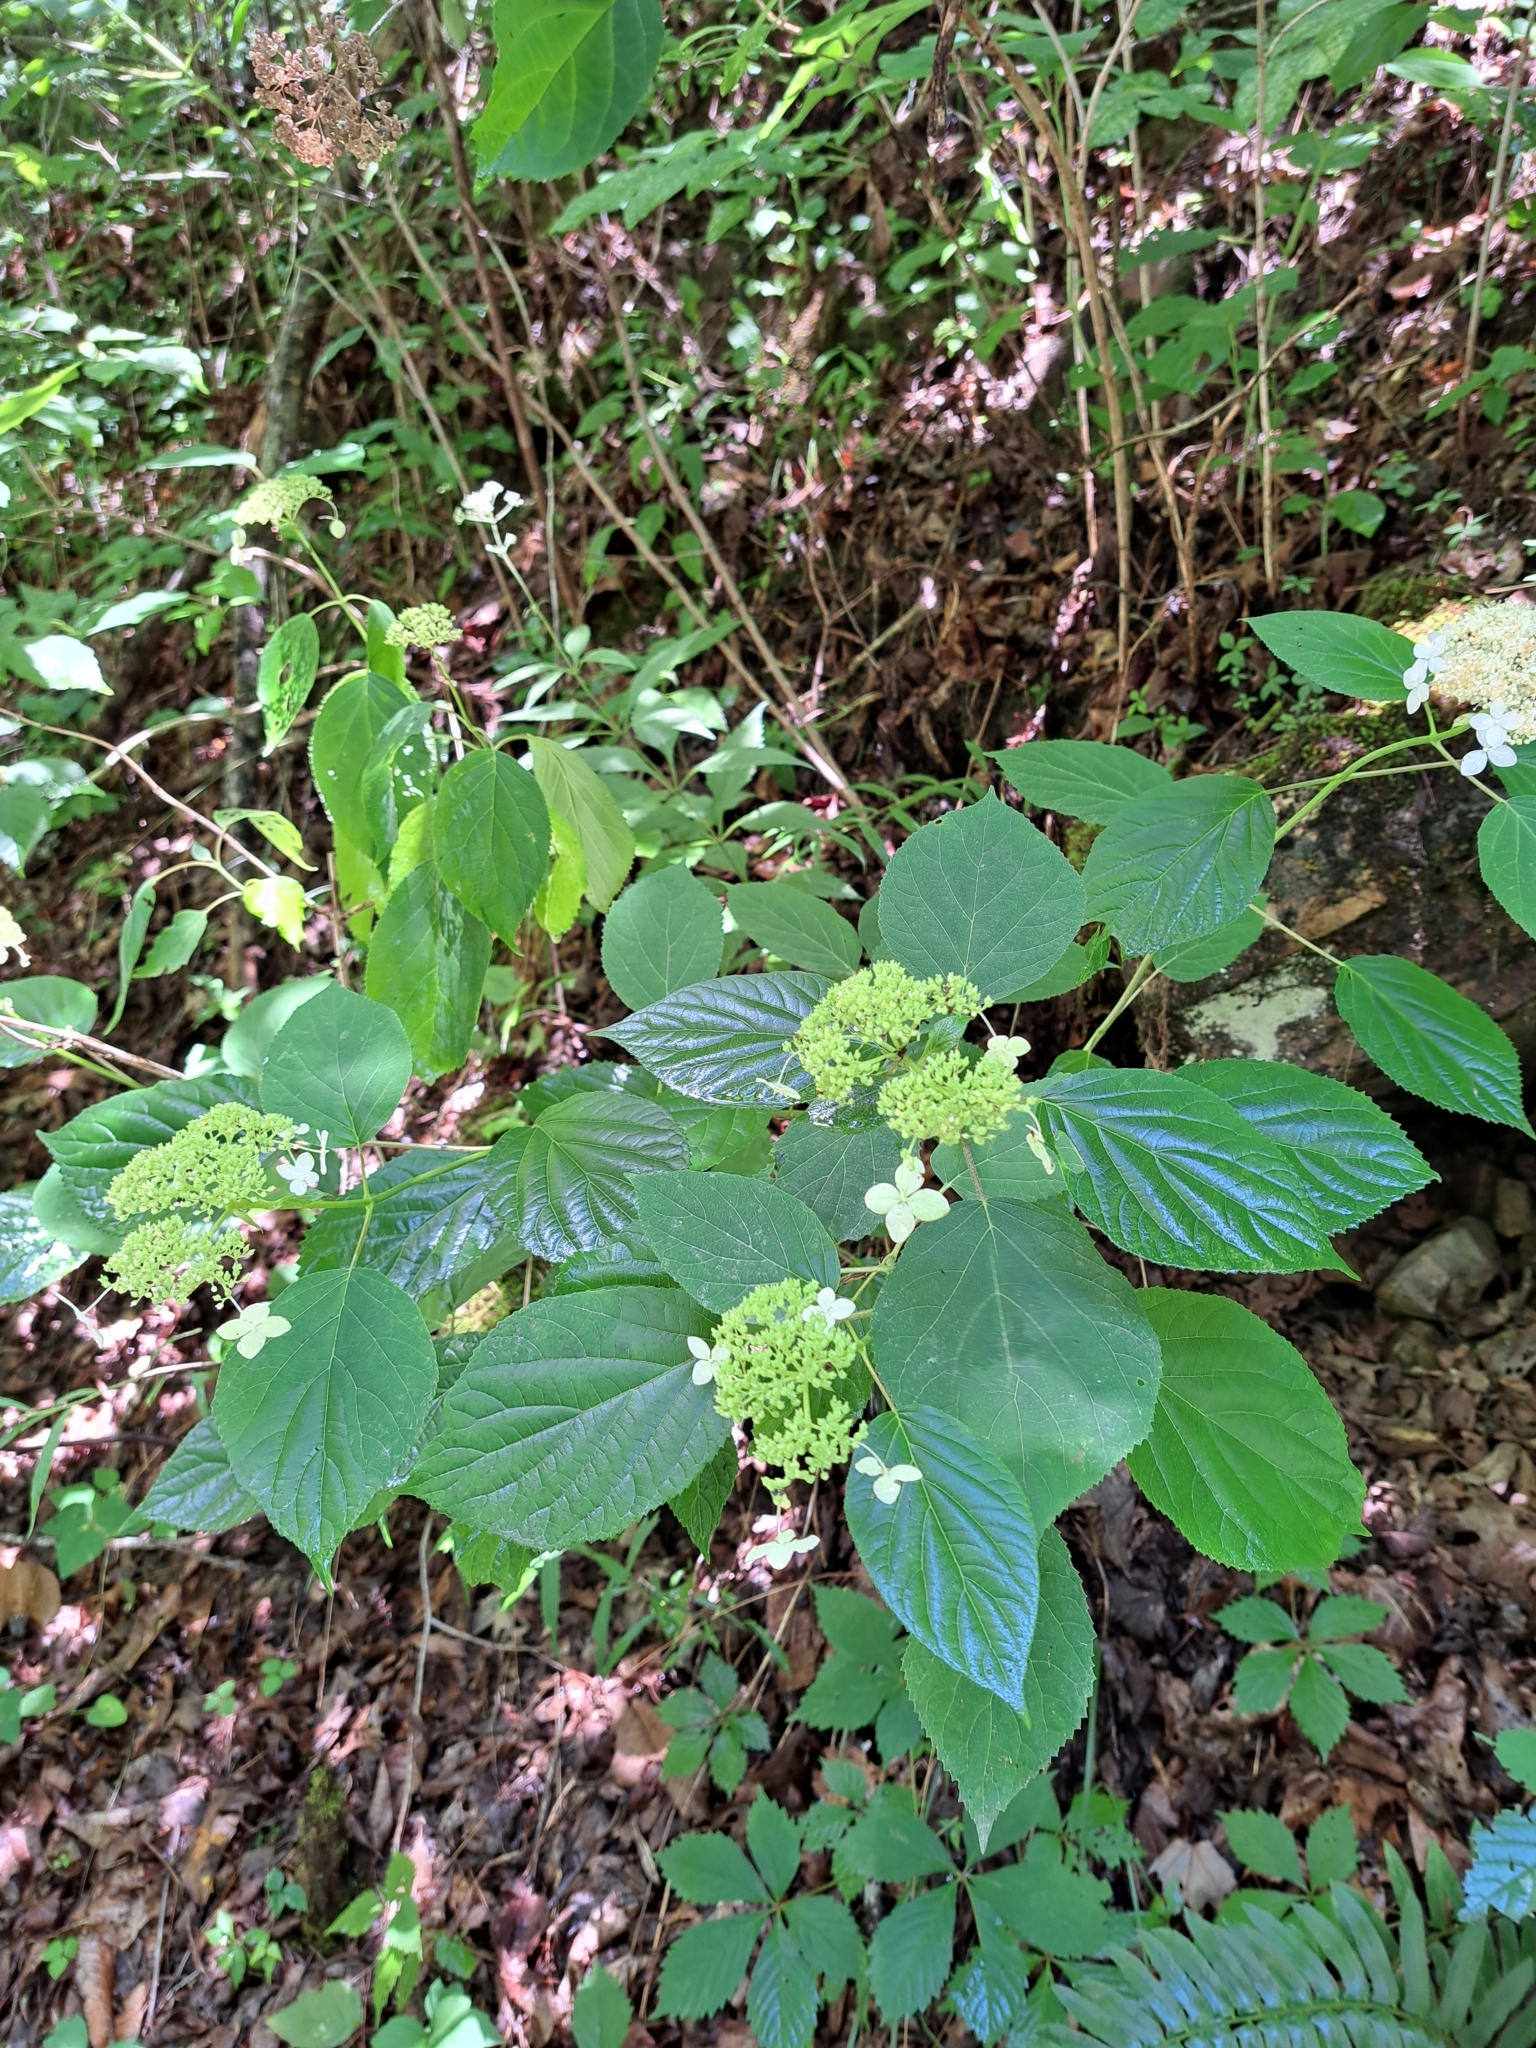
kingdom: Plantae
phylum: Tracheophyta
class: Magnoliopsida
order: Cornales
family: Hydrangeaceae
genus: Hydrangea
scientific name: Hydrangea arborescens
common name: Sevenbark
